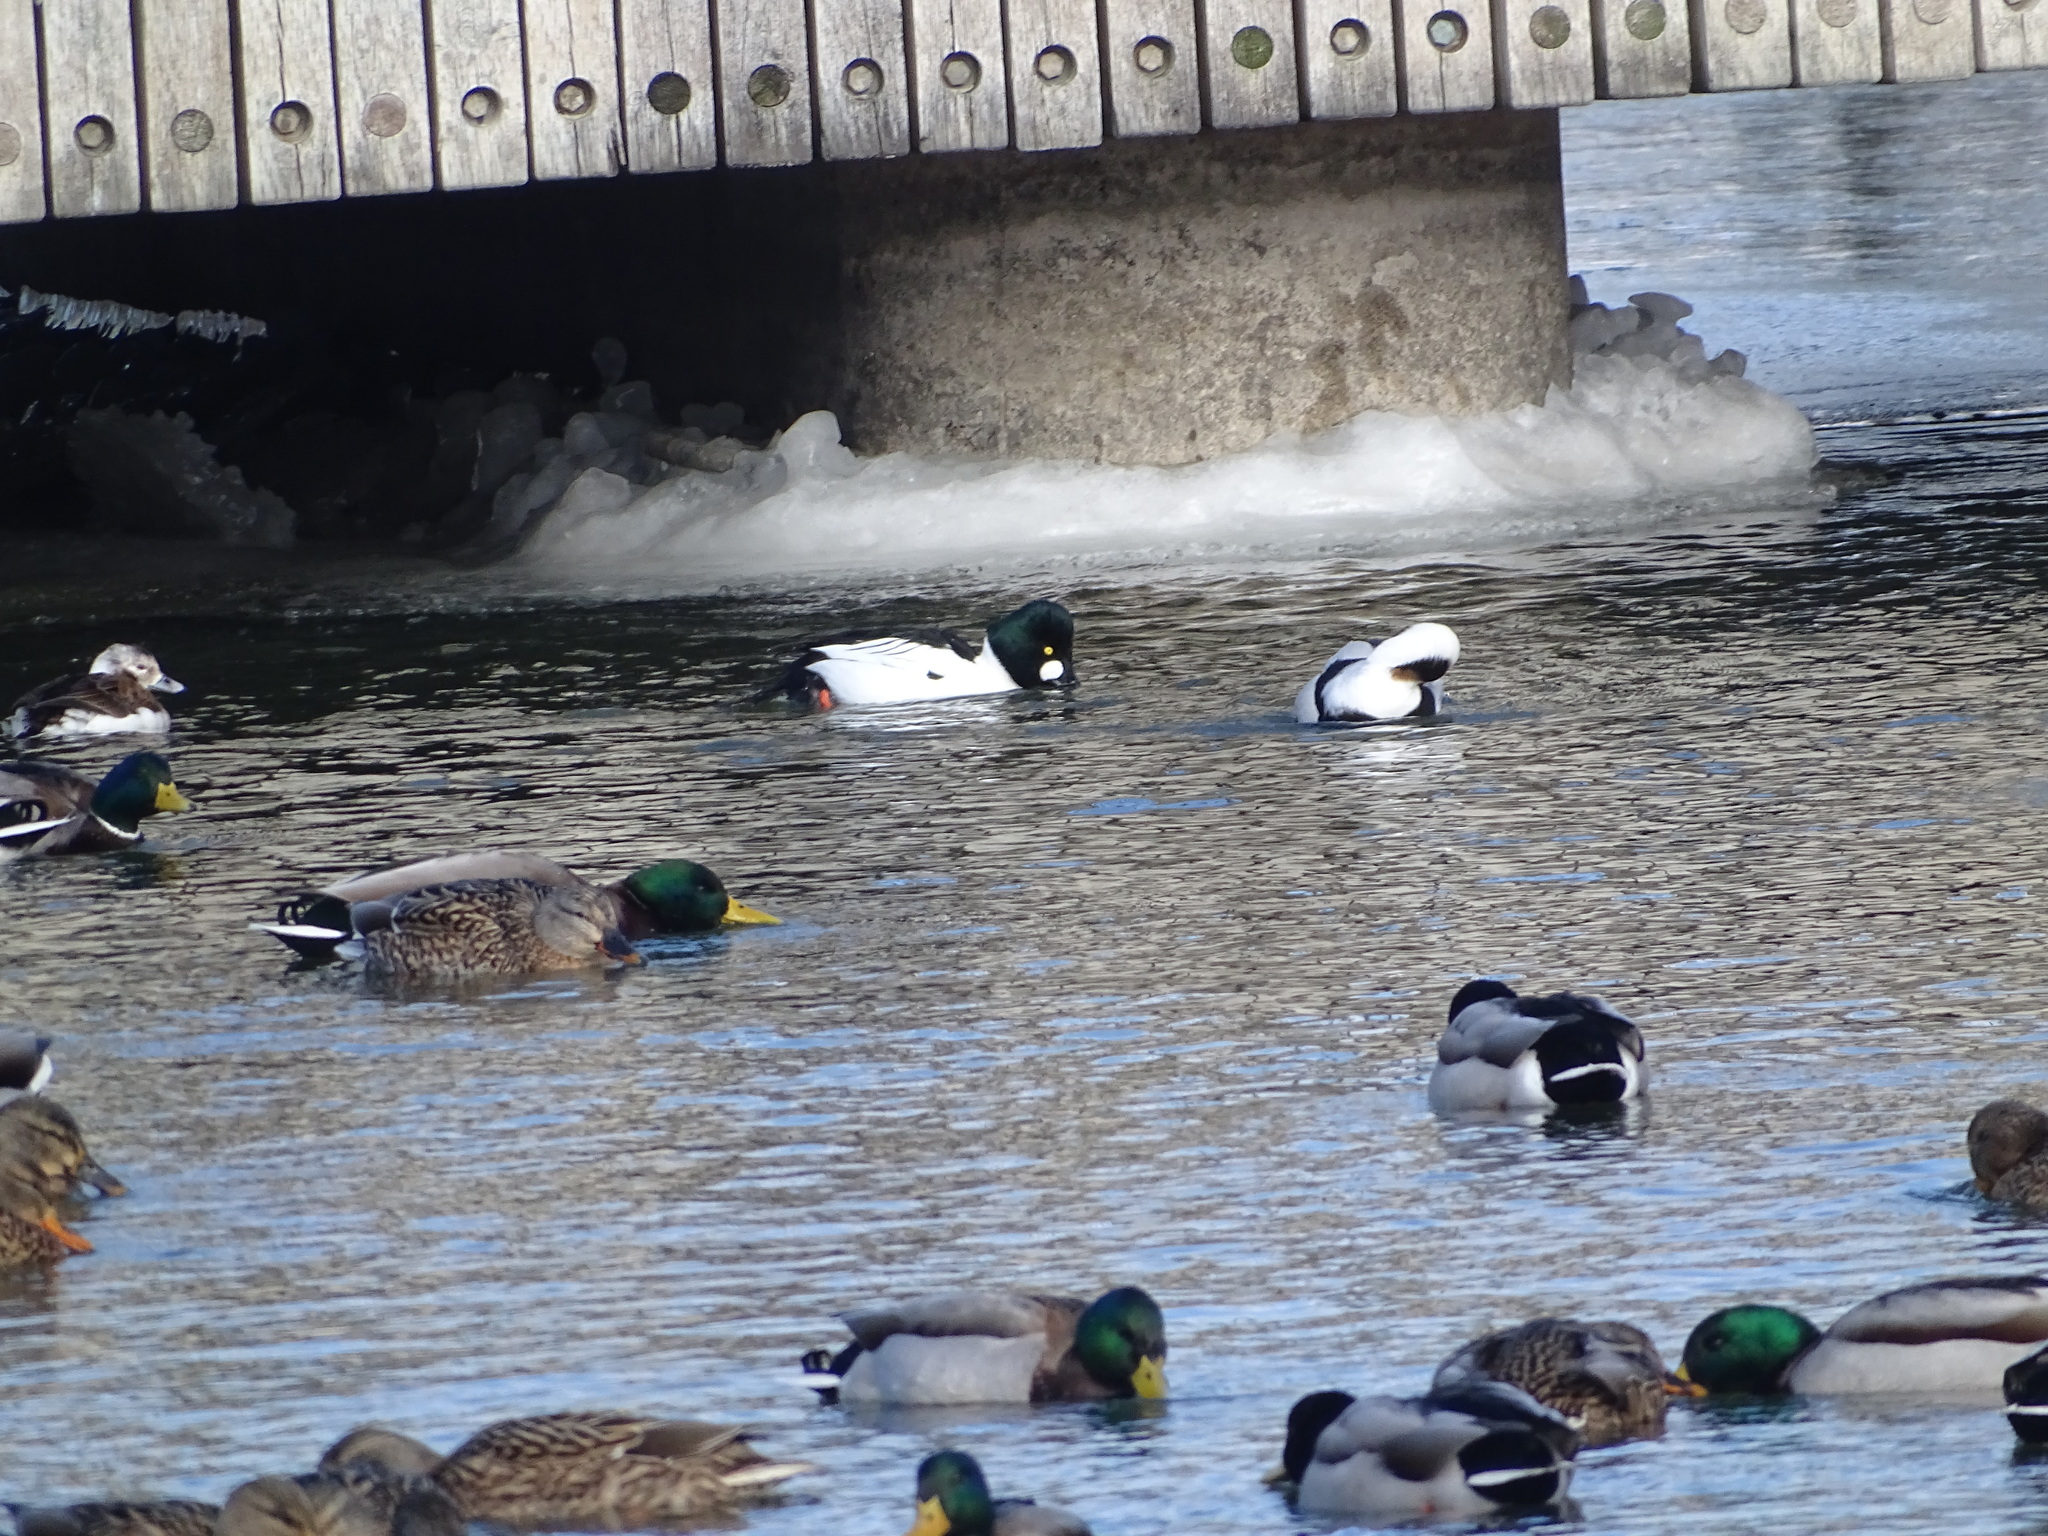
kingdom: Animalia
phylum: Chordata
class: Aves
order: Anseriformes
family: Anatidae
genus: Bucephala
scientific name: Bucephala clangula
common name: Common goldeneye
